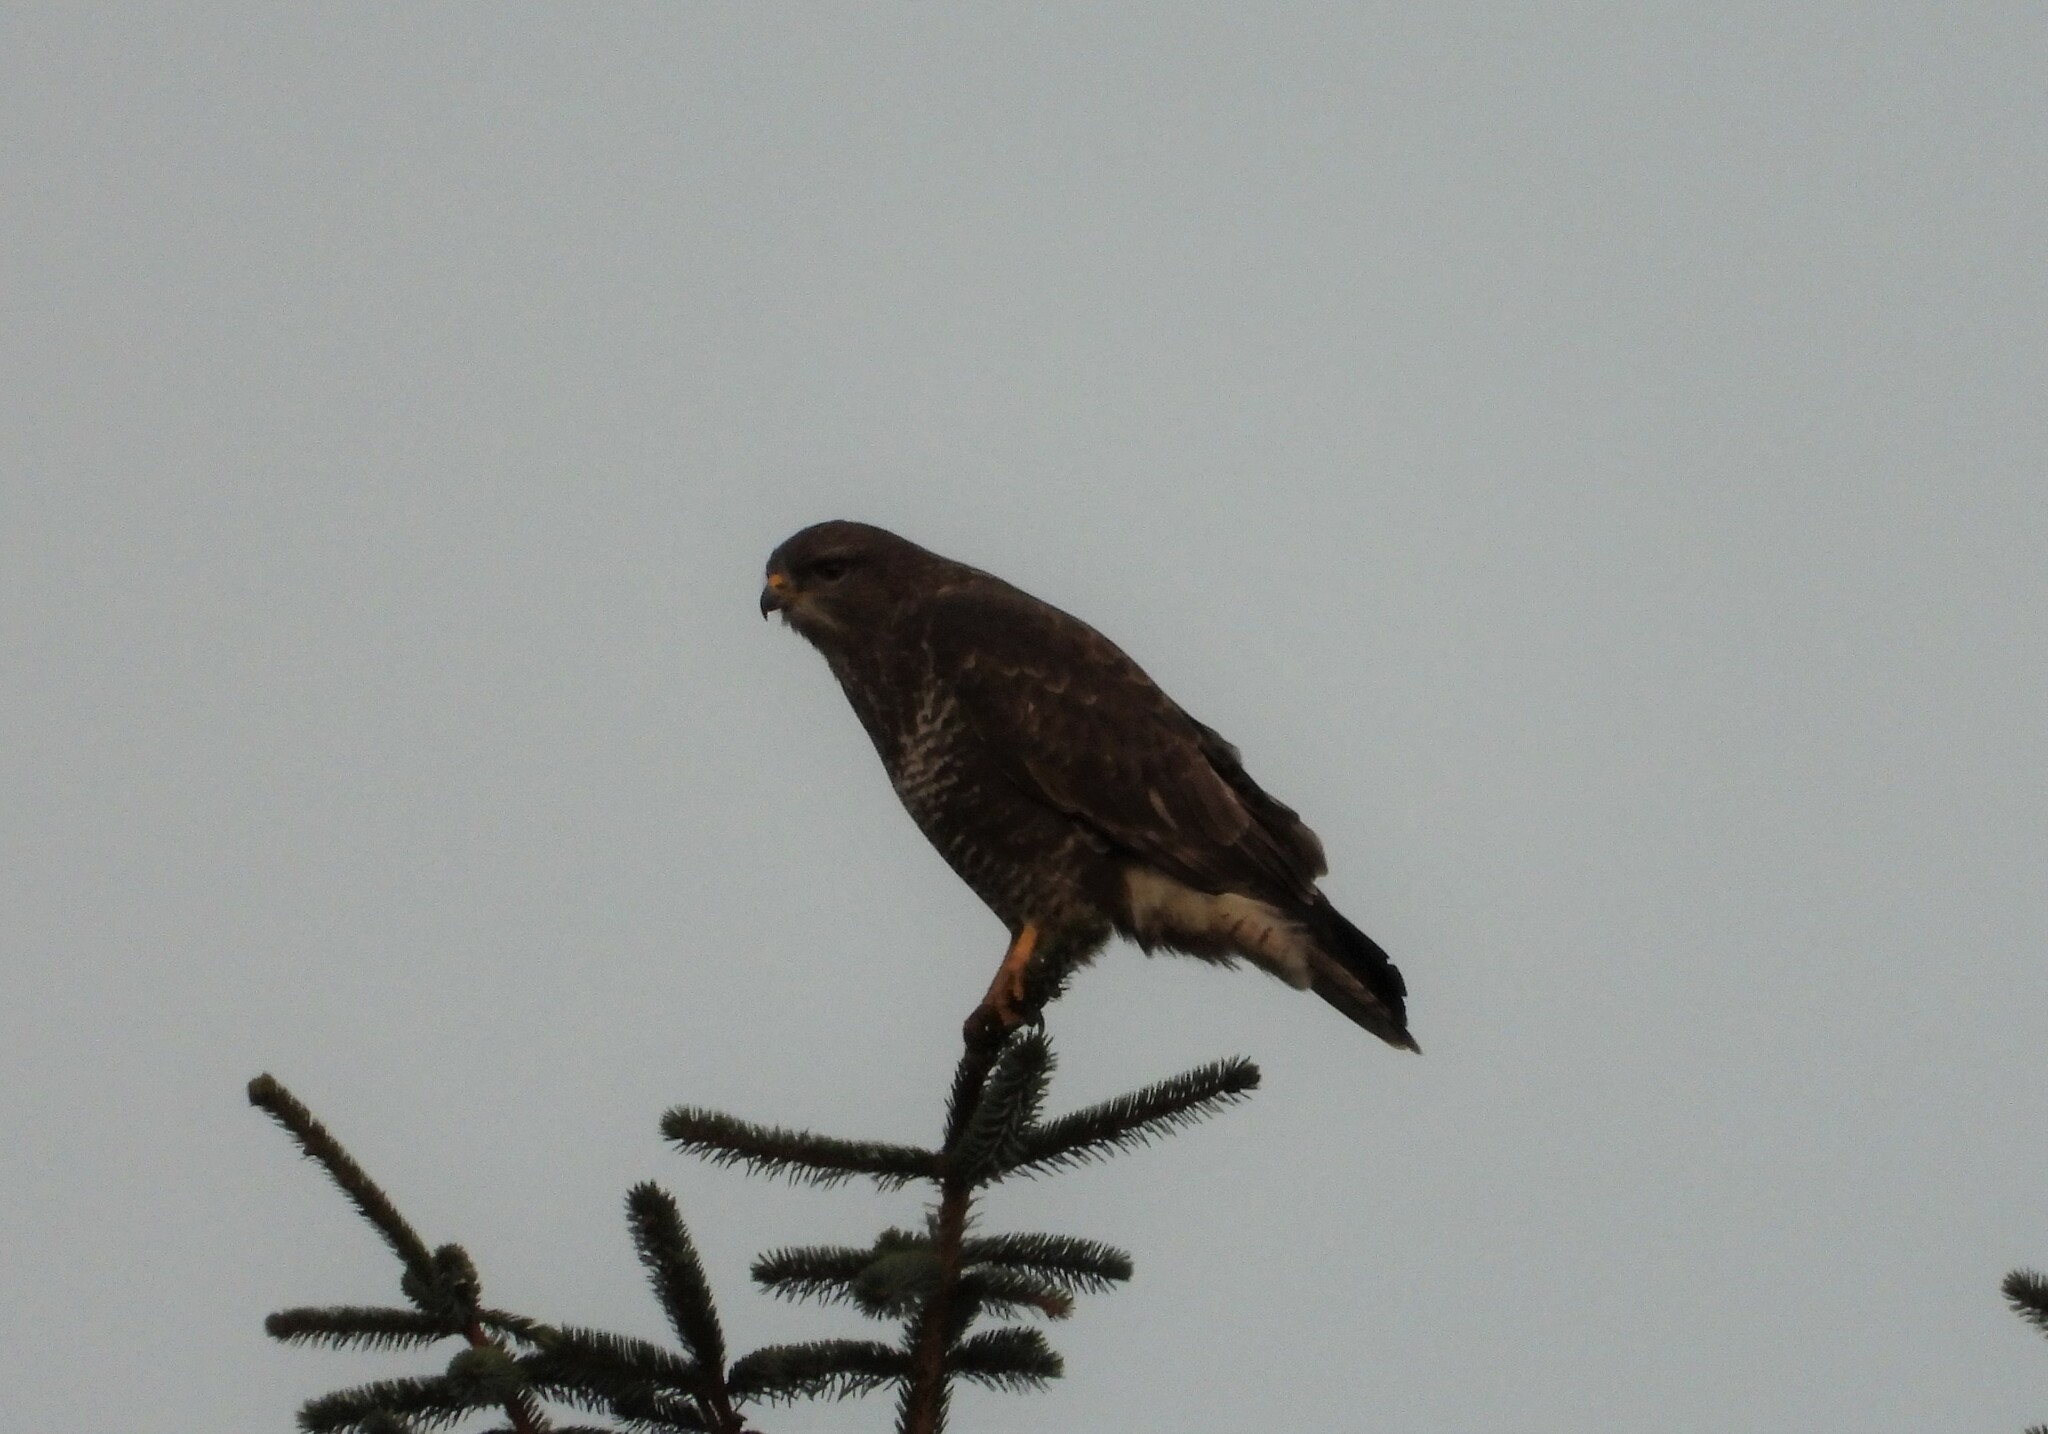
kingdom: Animalia
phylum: Chordata
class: Aves
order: Accipitriformes
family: Accipitridae
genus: Buteo
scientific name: Buteo buteo
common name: Common buzzard
